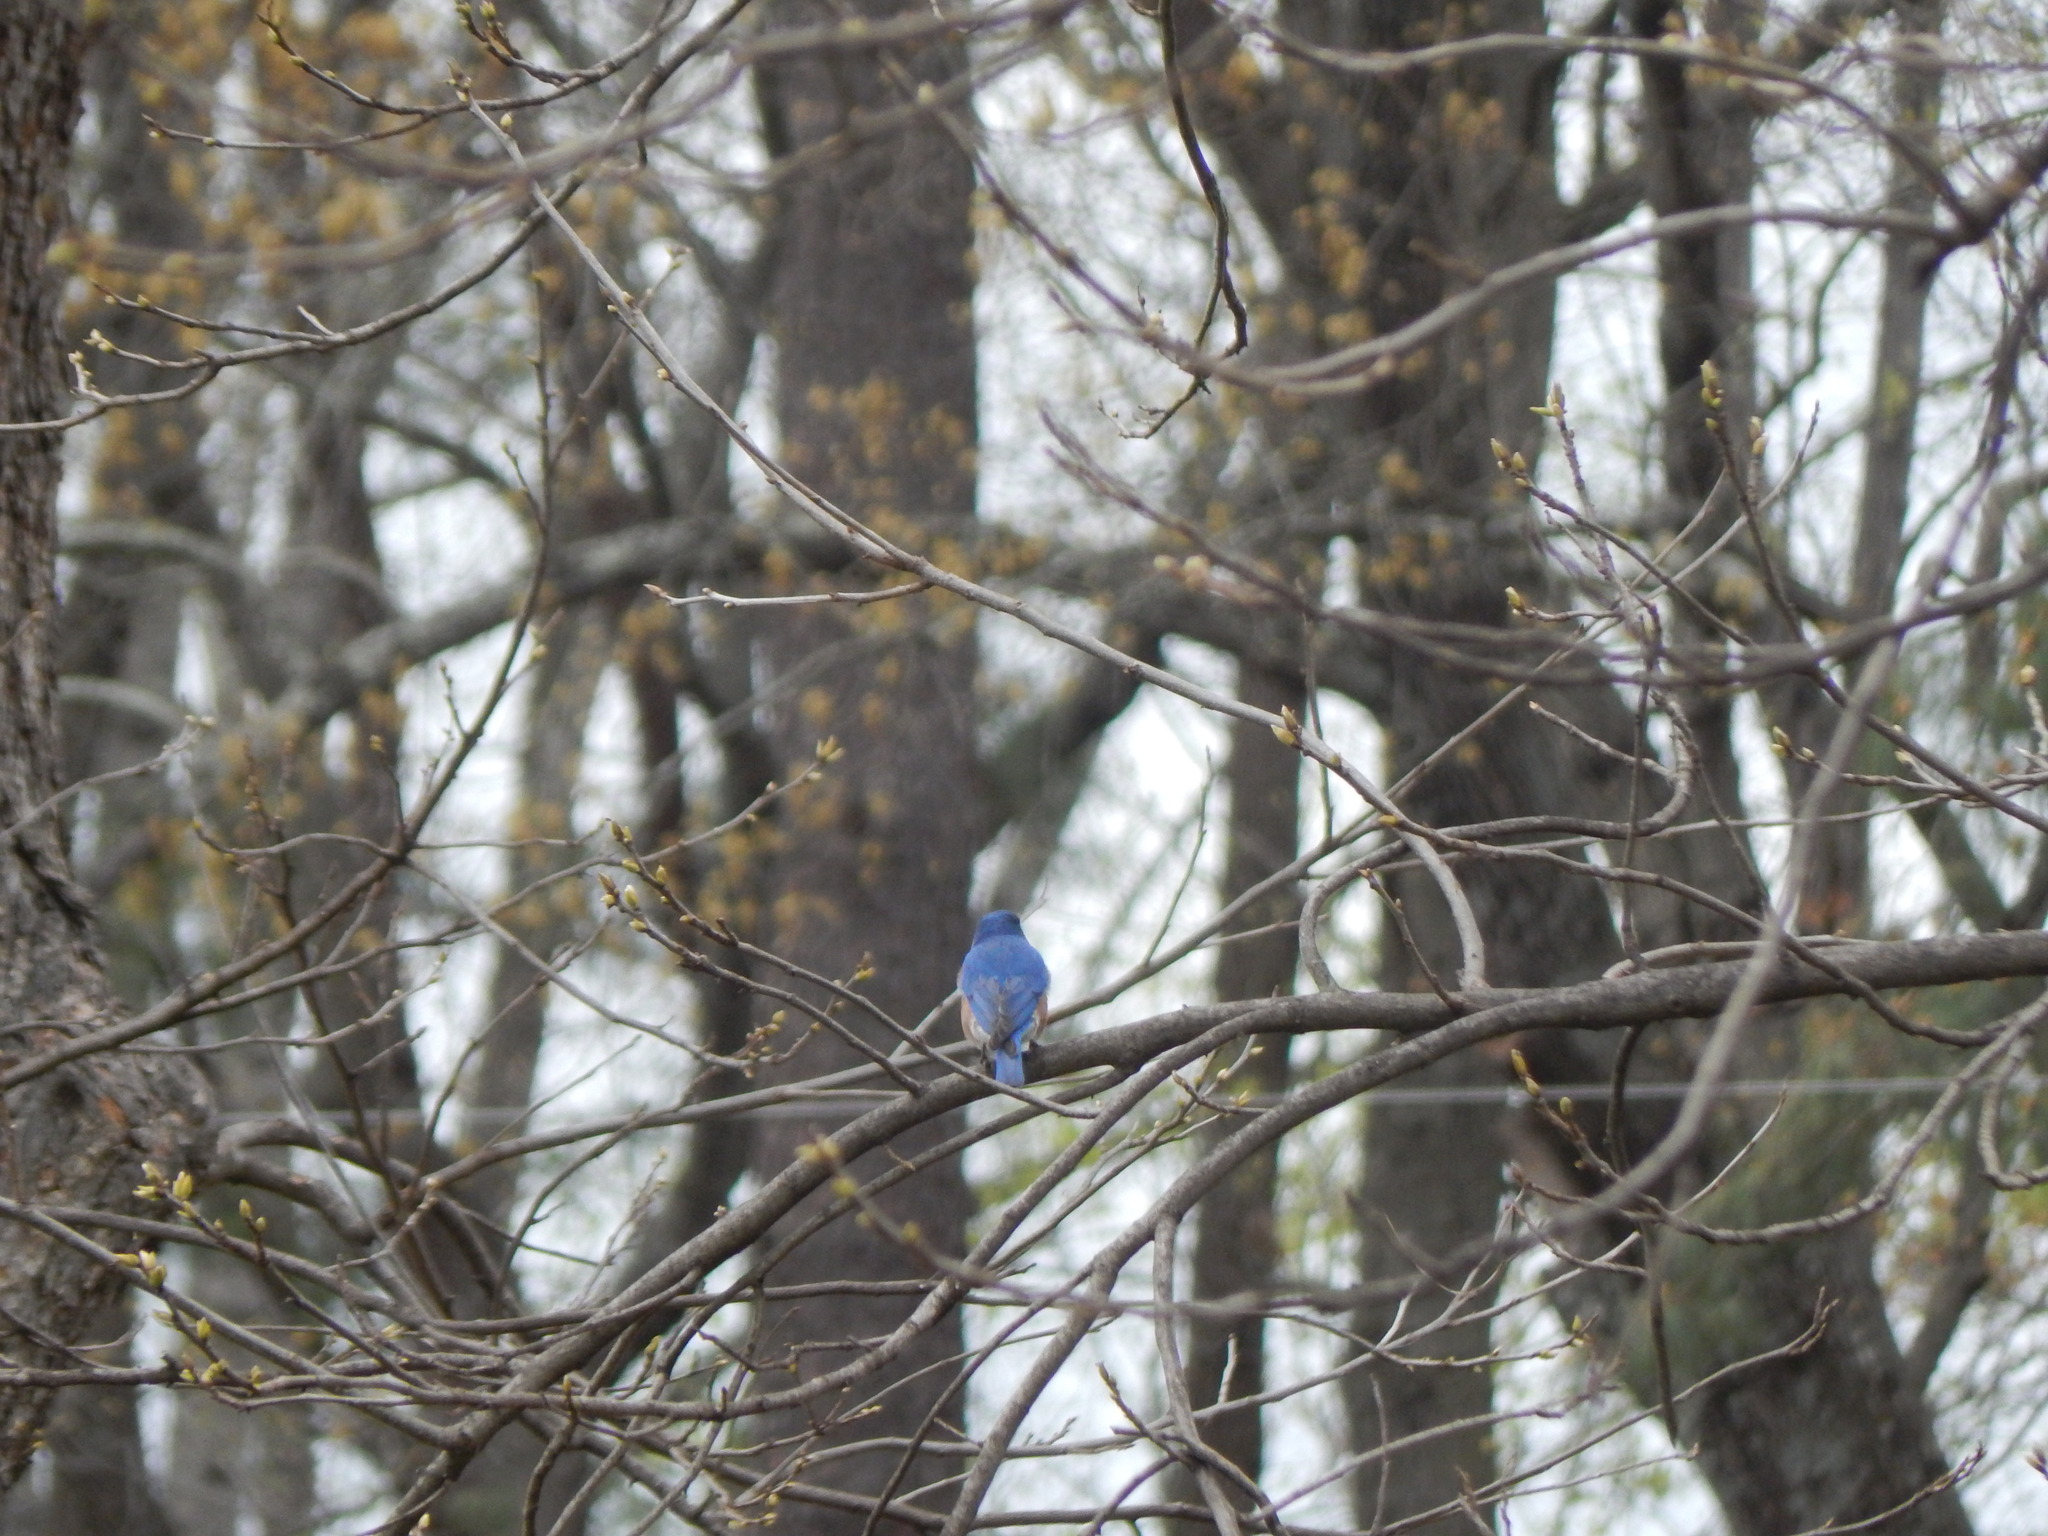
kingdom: Animalia
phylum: Chordata
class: Aves
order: Passeriformes
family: Turdidae
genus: Sialia
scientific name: Sialia sialis
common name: Eastern bluebird
